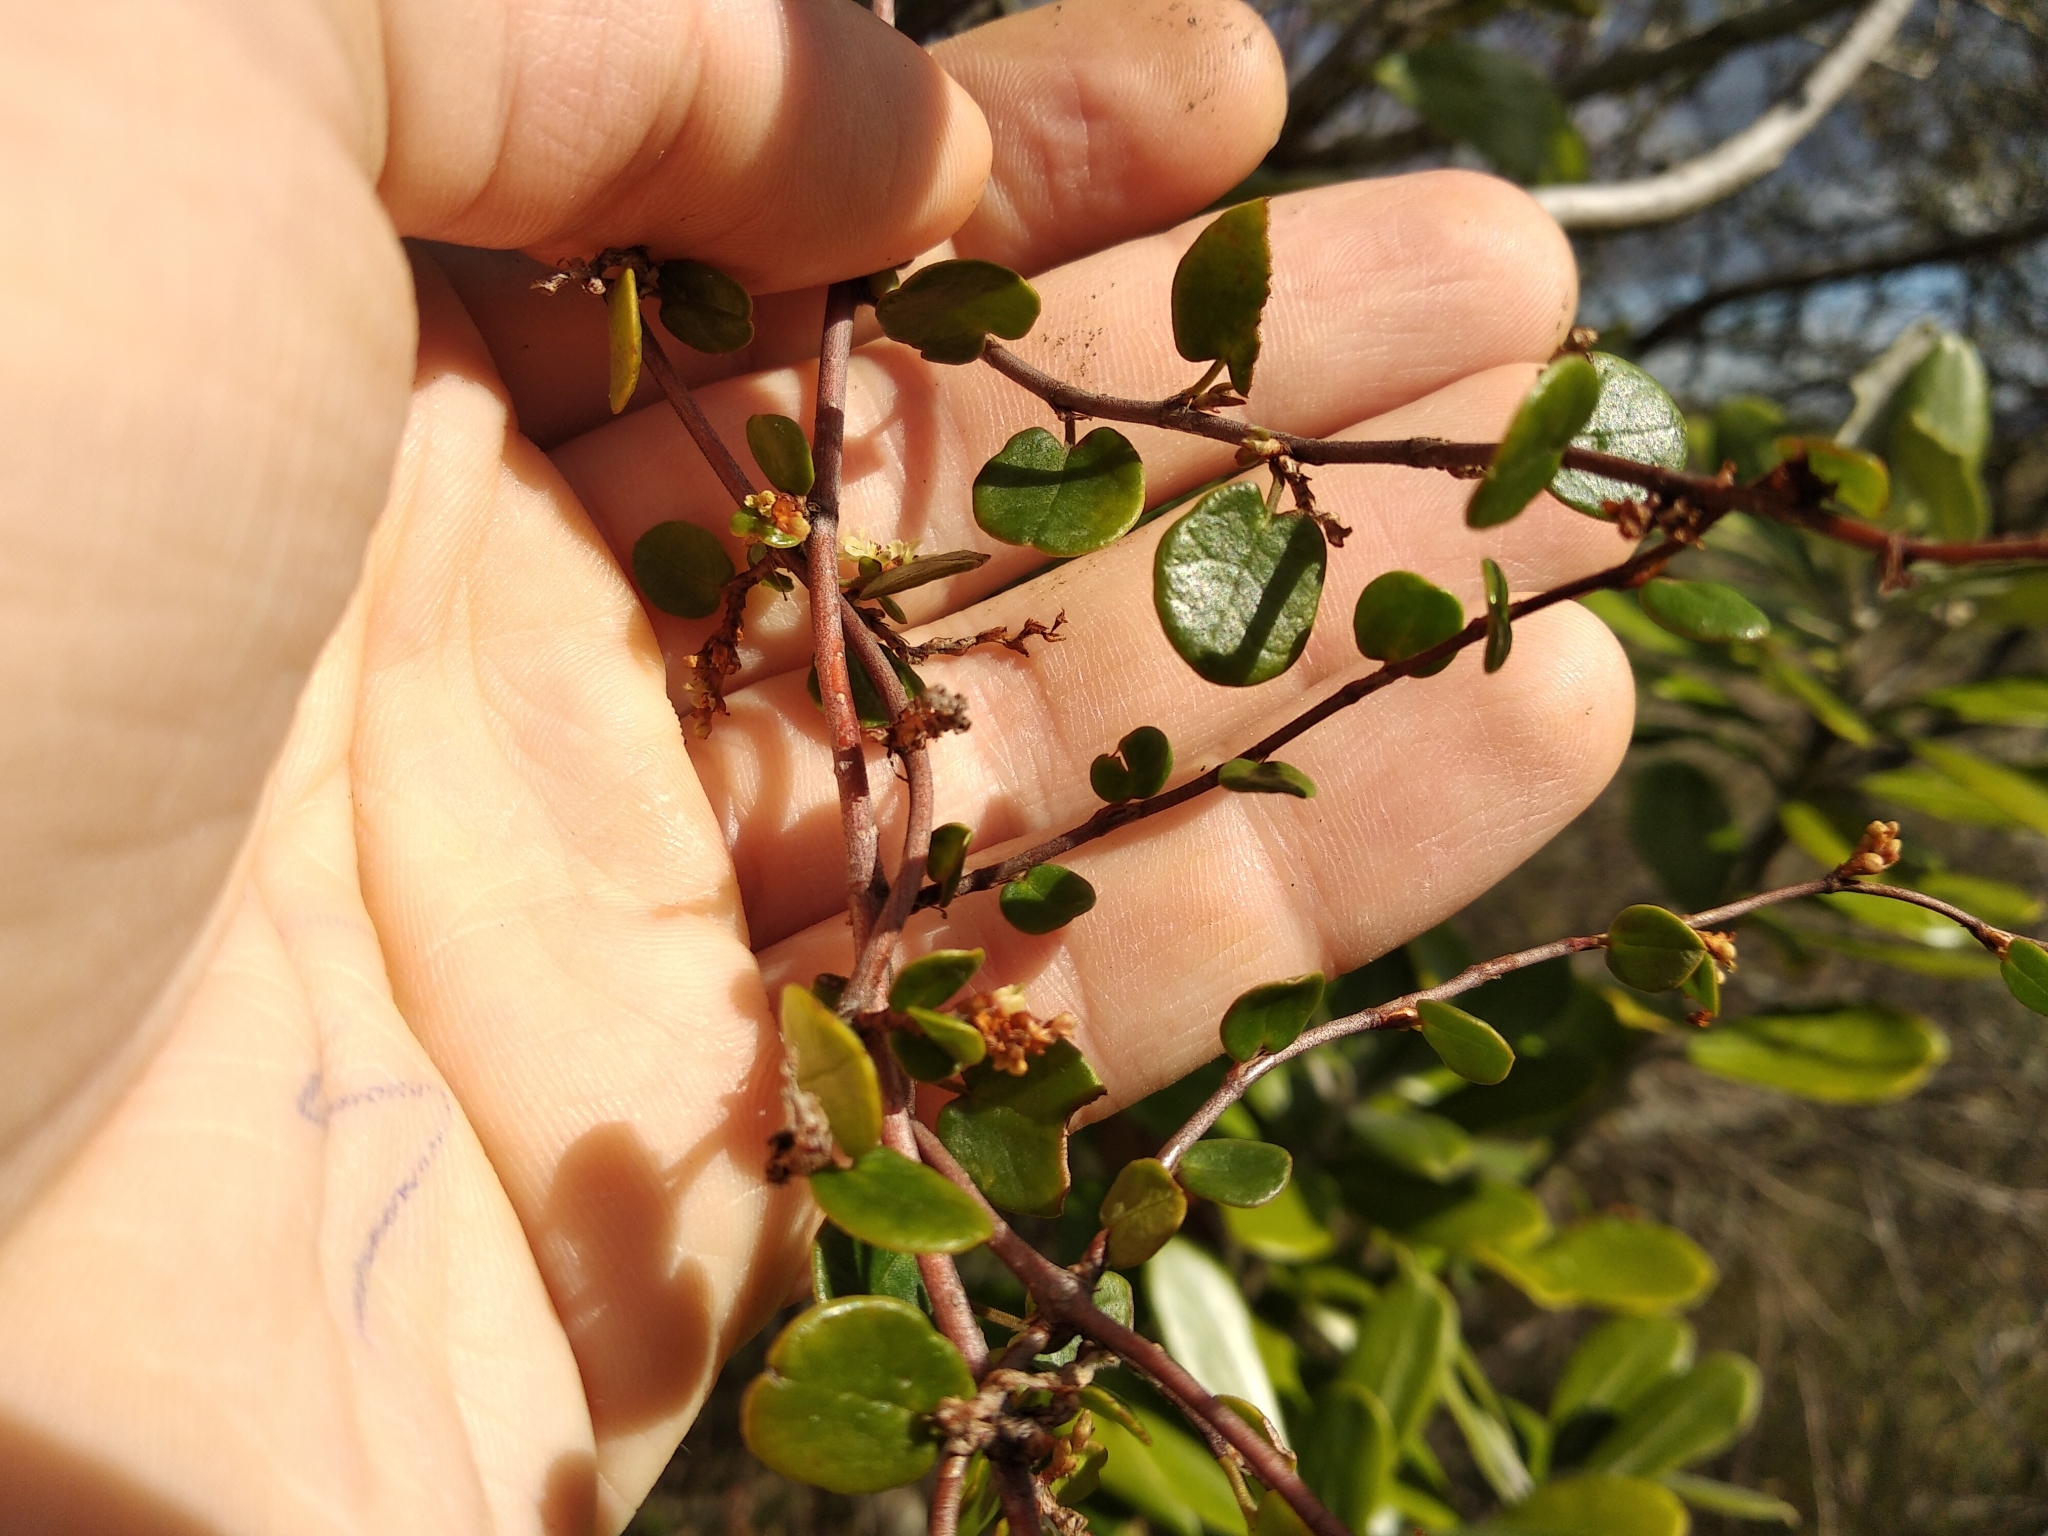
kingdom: Plantae
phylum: Tracheophyta
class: Magnoliopsida
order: Caryophyllales
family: Polygonaceae
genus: Muehlenbeckia
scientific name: Muehlenbeckia complexa
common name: Wireplant
